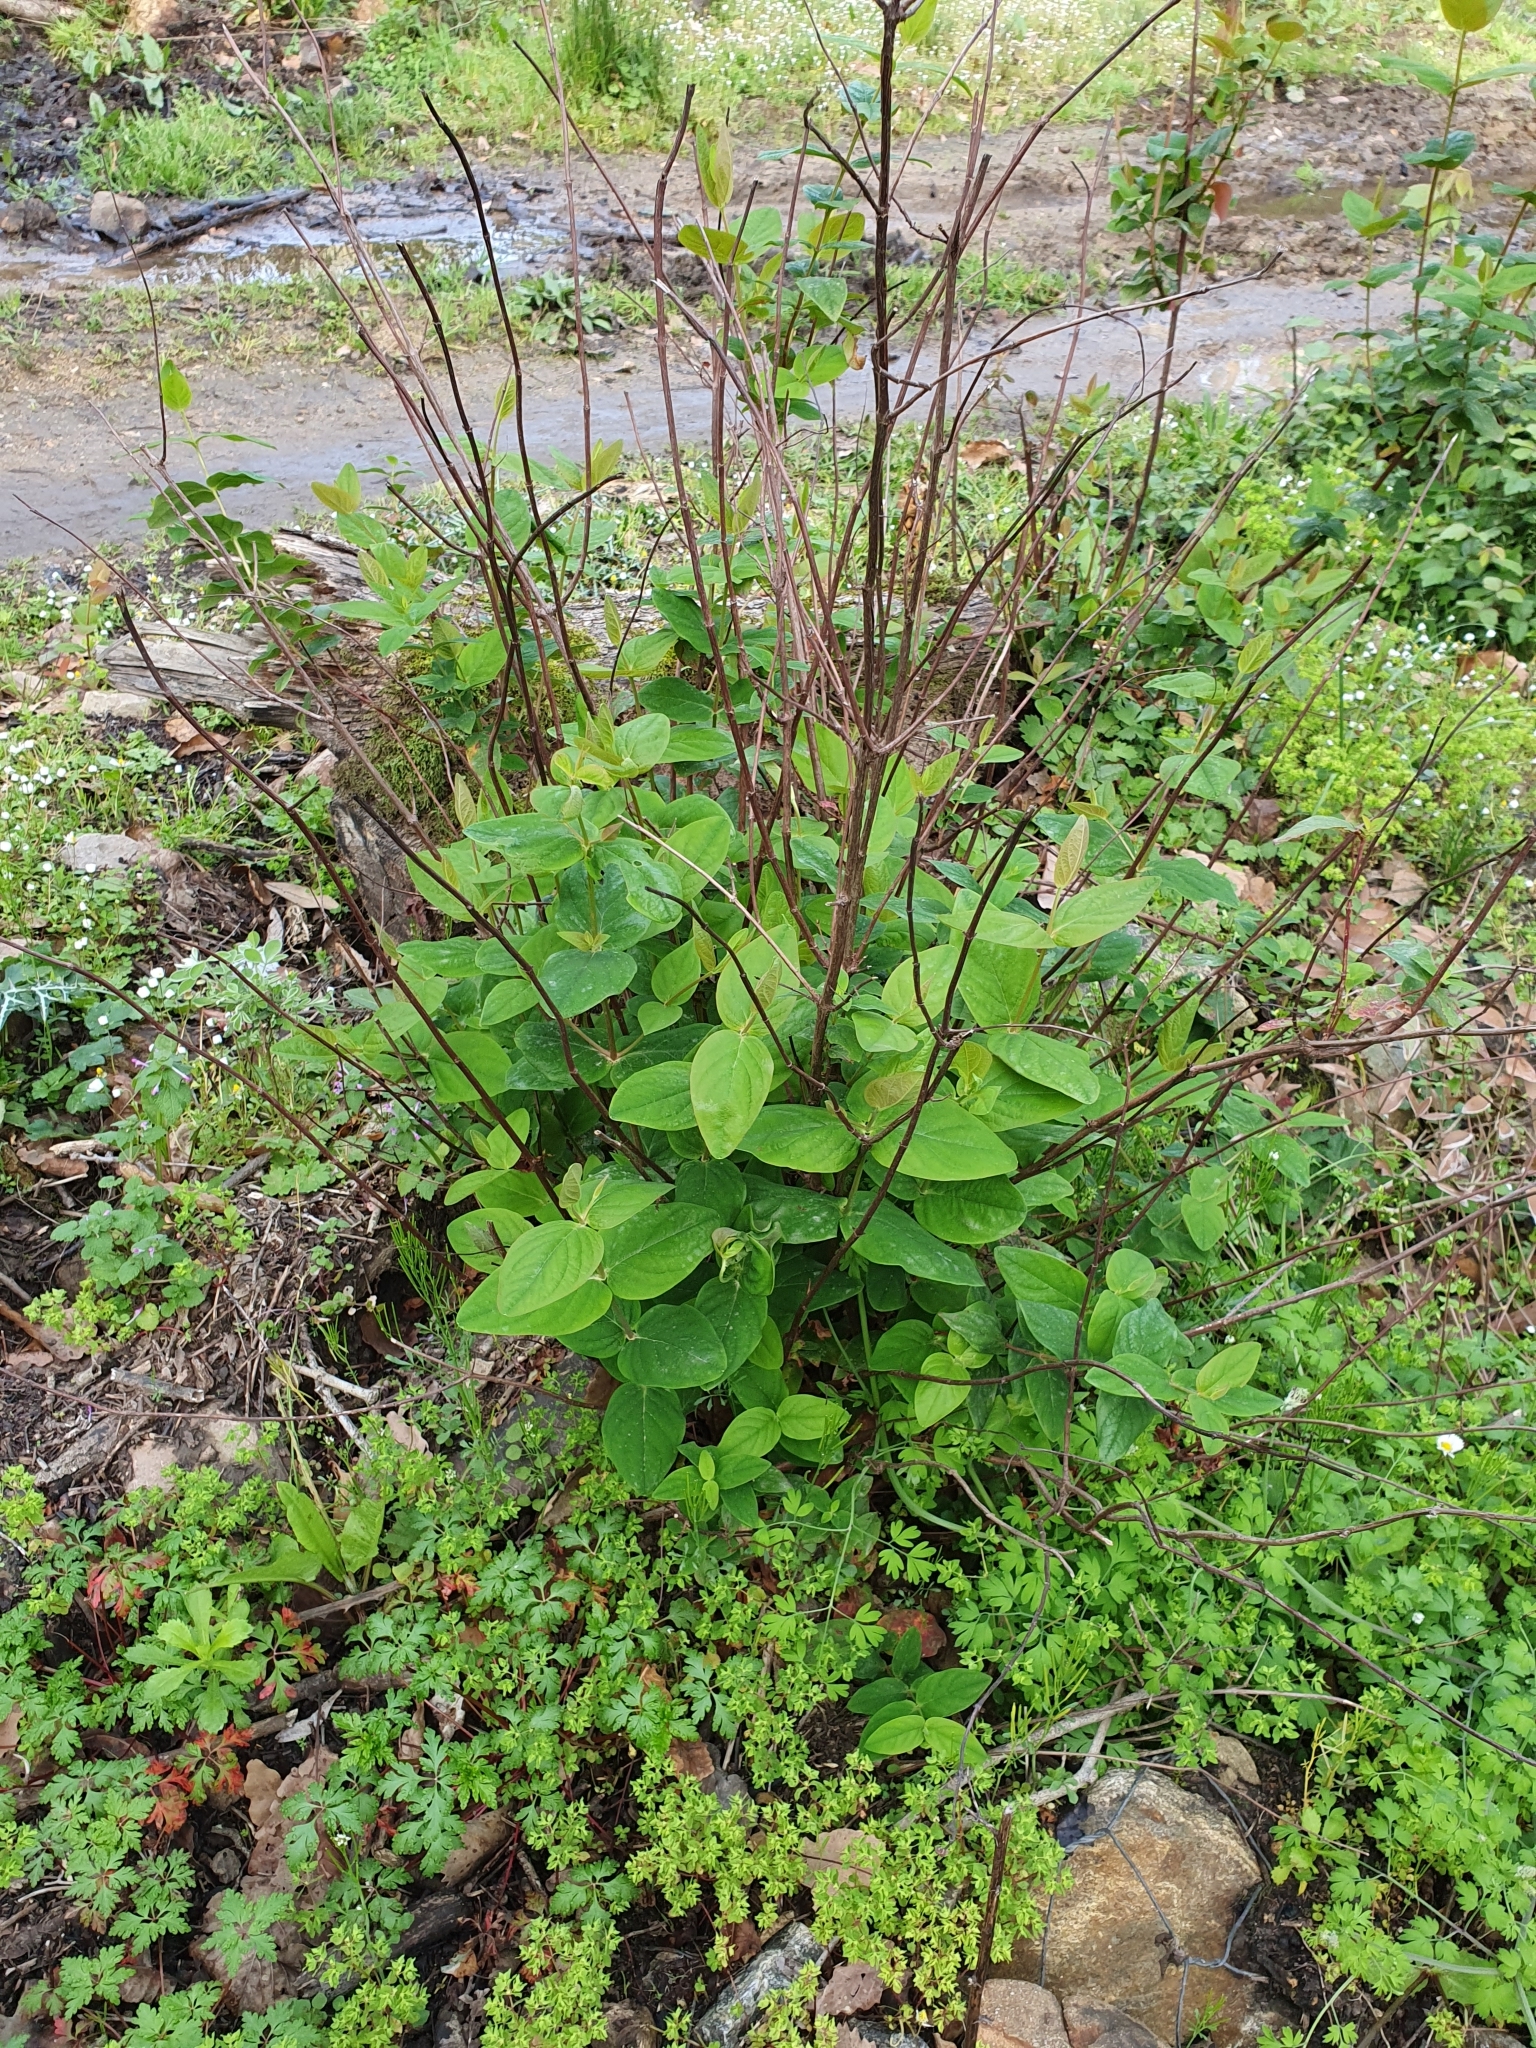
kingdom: Plantae
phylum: Tracheophyta
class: Magnoliopsida
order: Malpighiales
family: Hypericaceae
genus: Hypericum
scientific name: Hypericum androsaemum
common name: Sweet-amber
